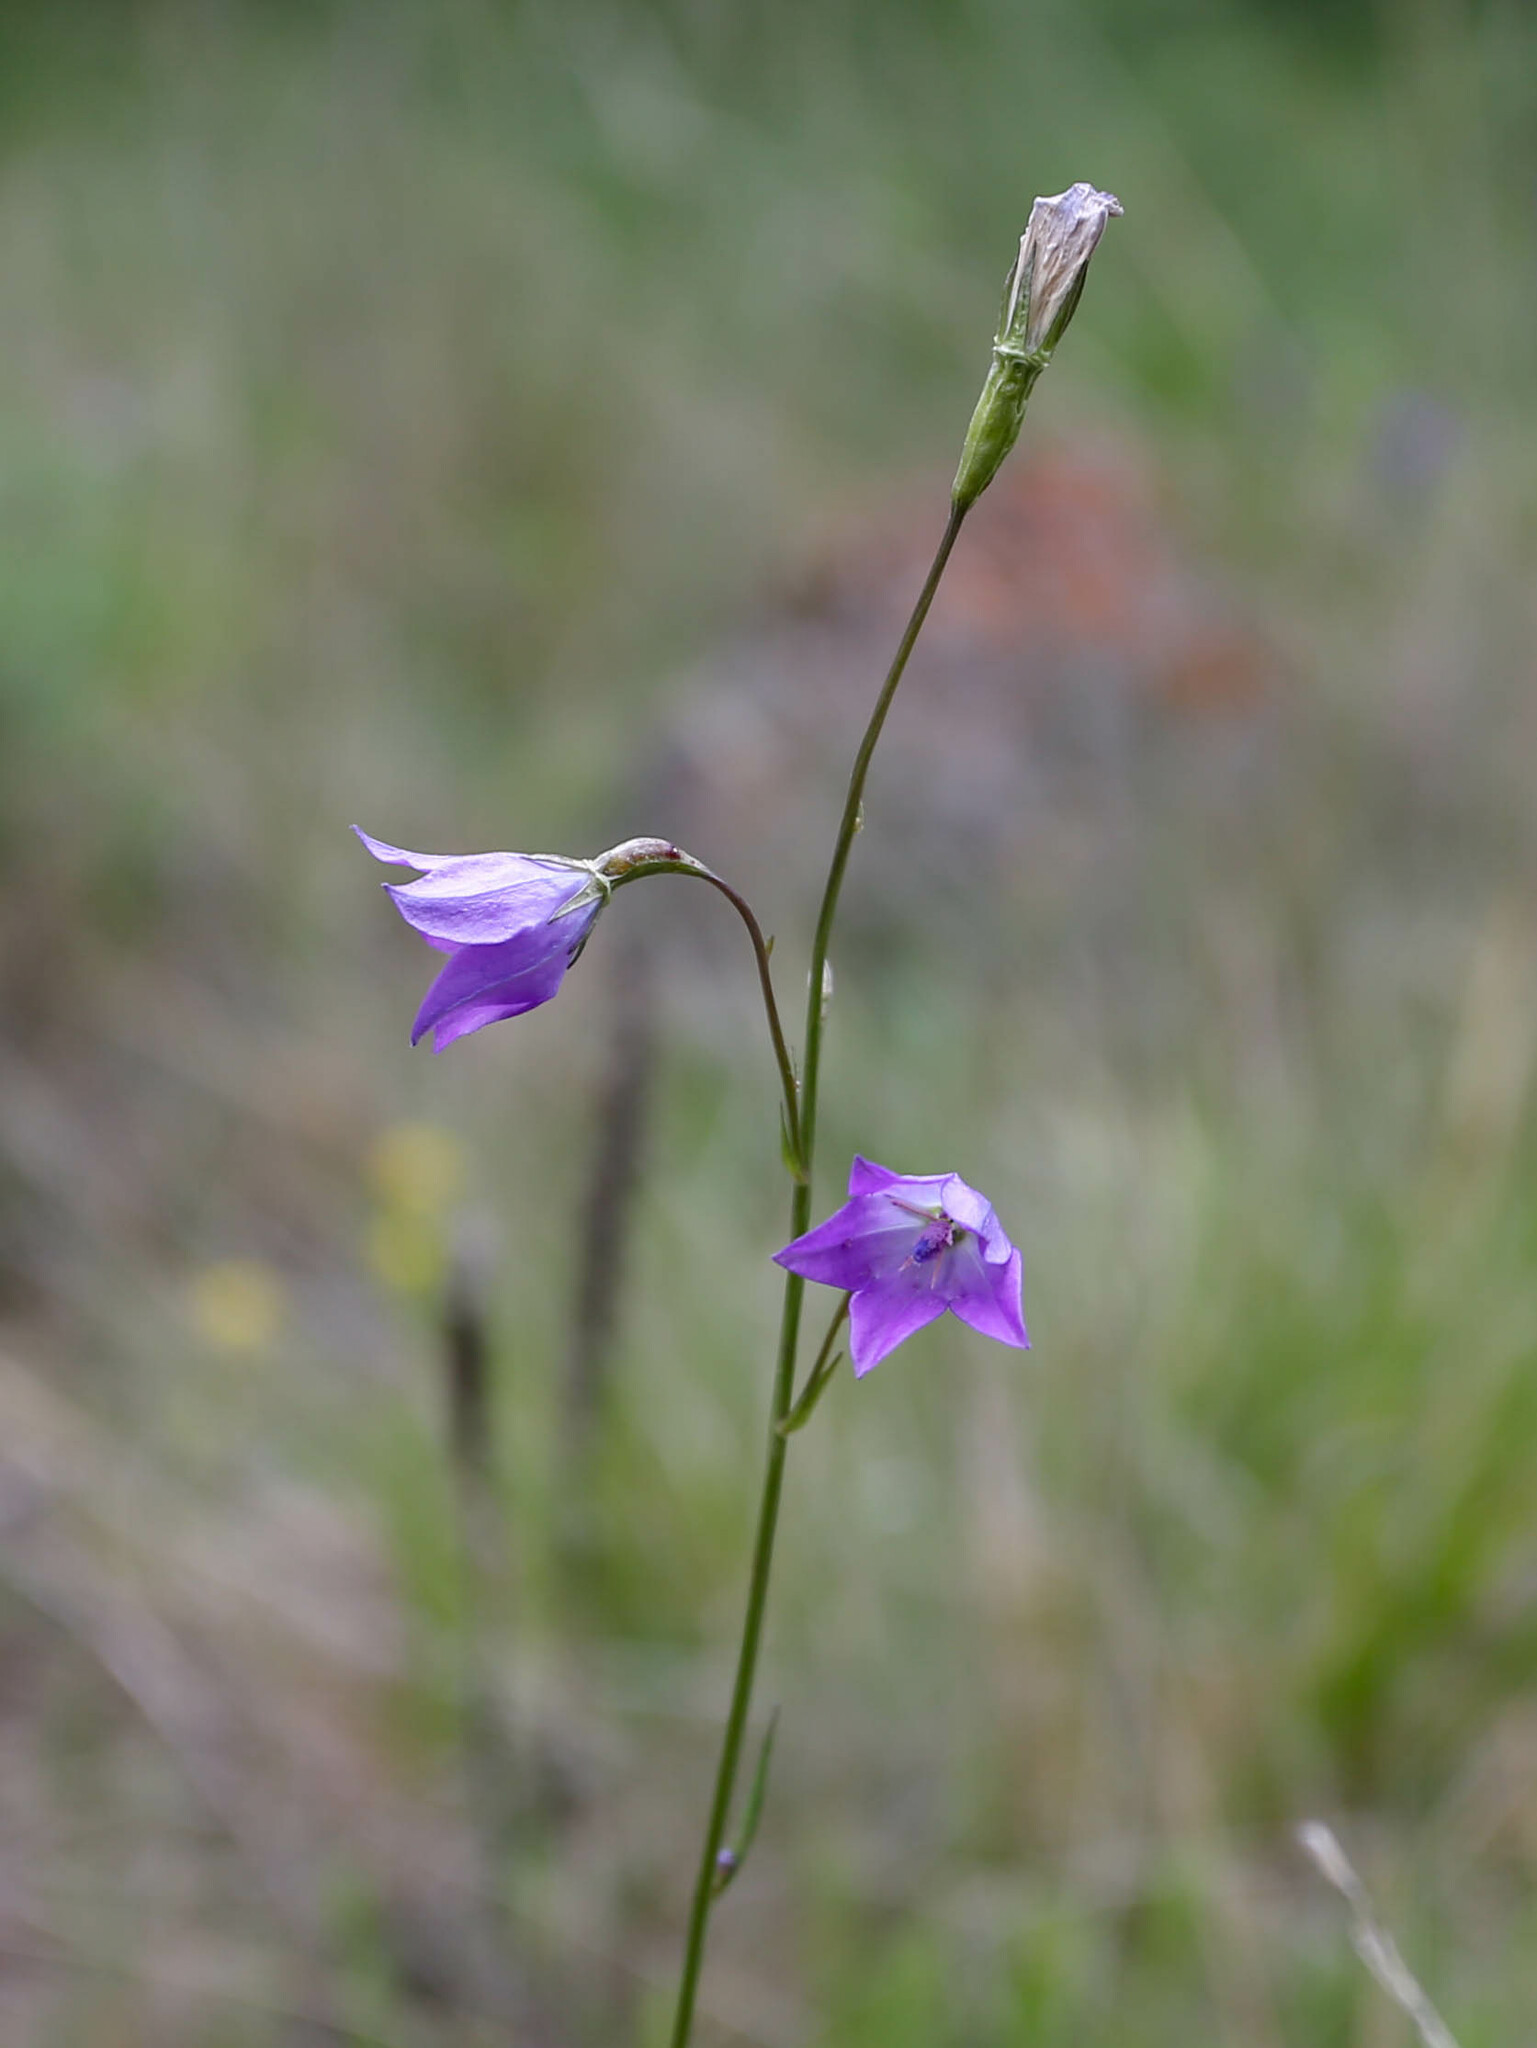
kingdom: Plantae
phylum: Tracheophyta
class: Magnoliopsida
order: Asterales
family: Campanulaceae
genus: Campanula
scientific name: Campanula stevenii
